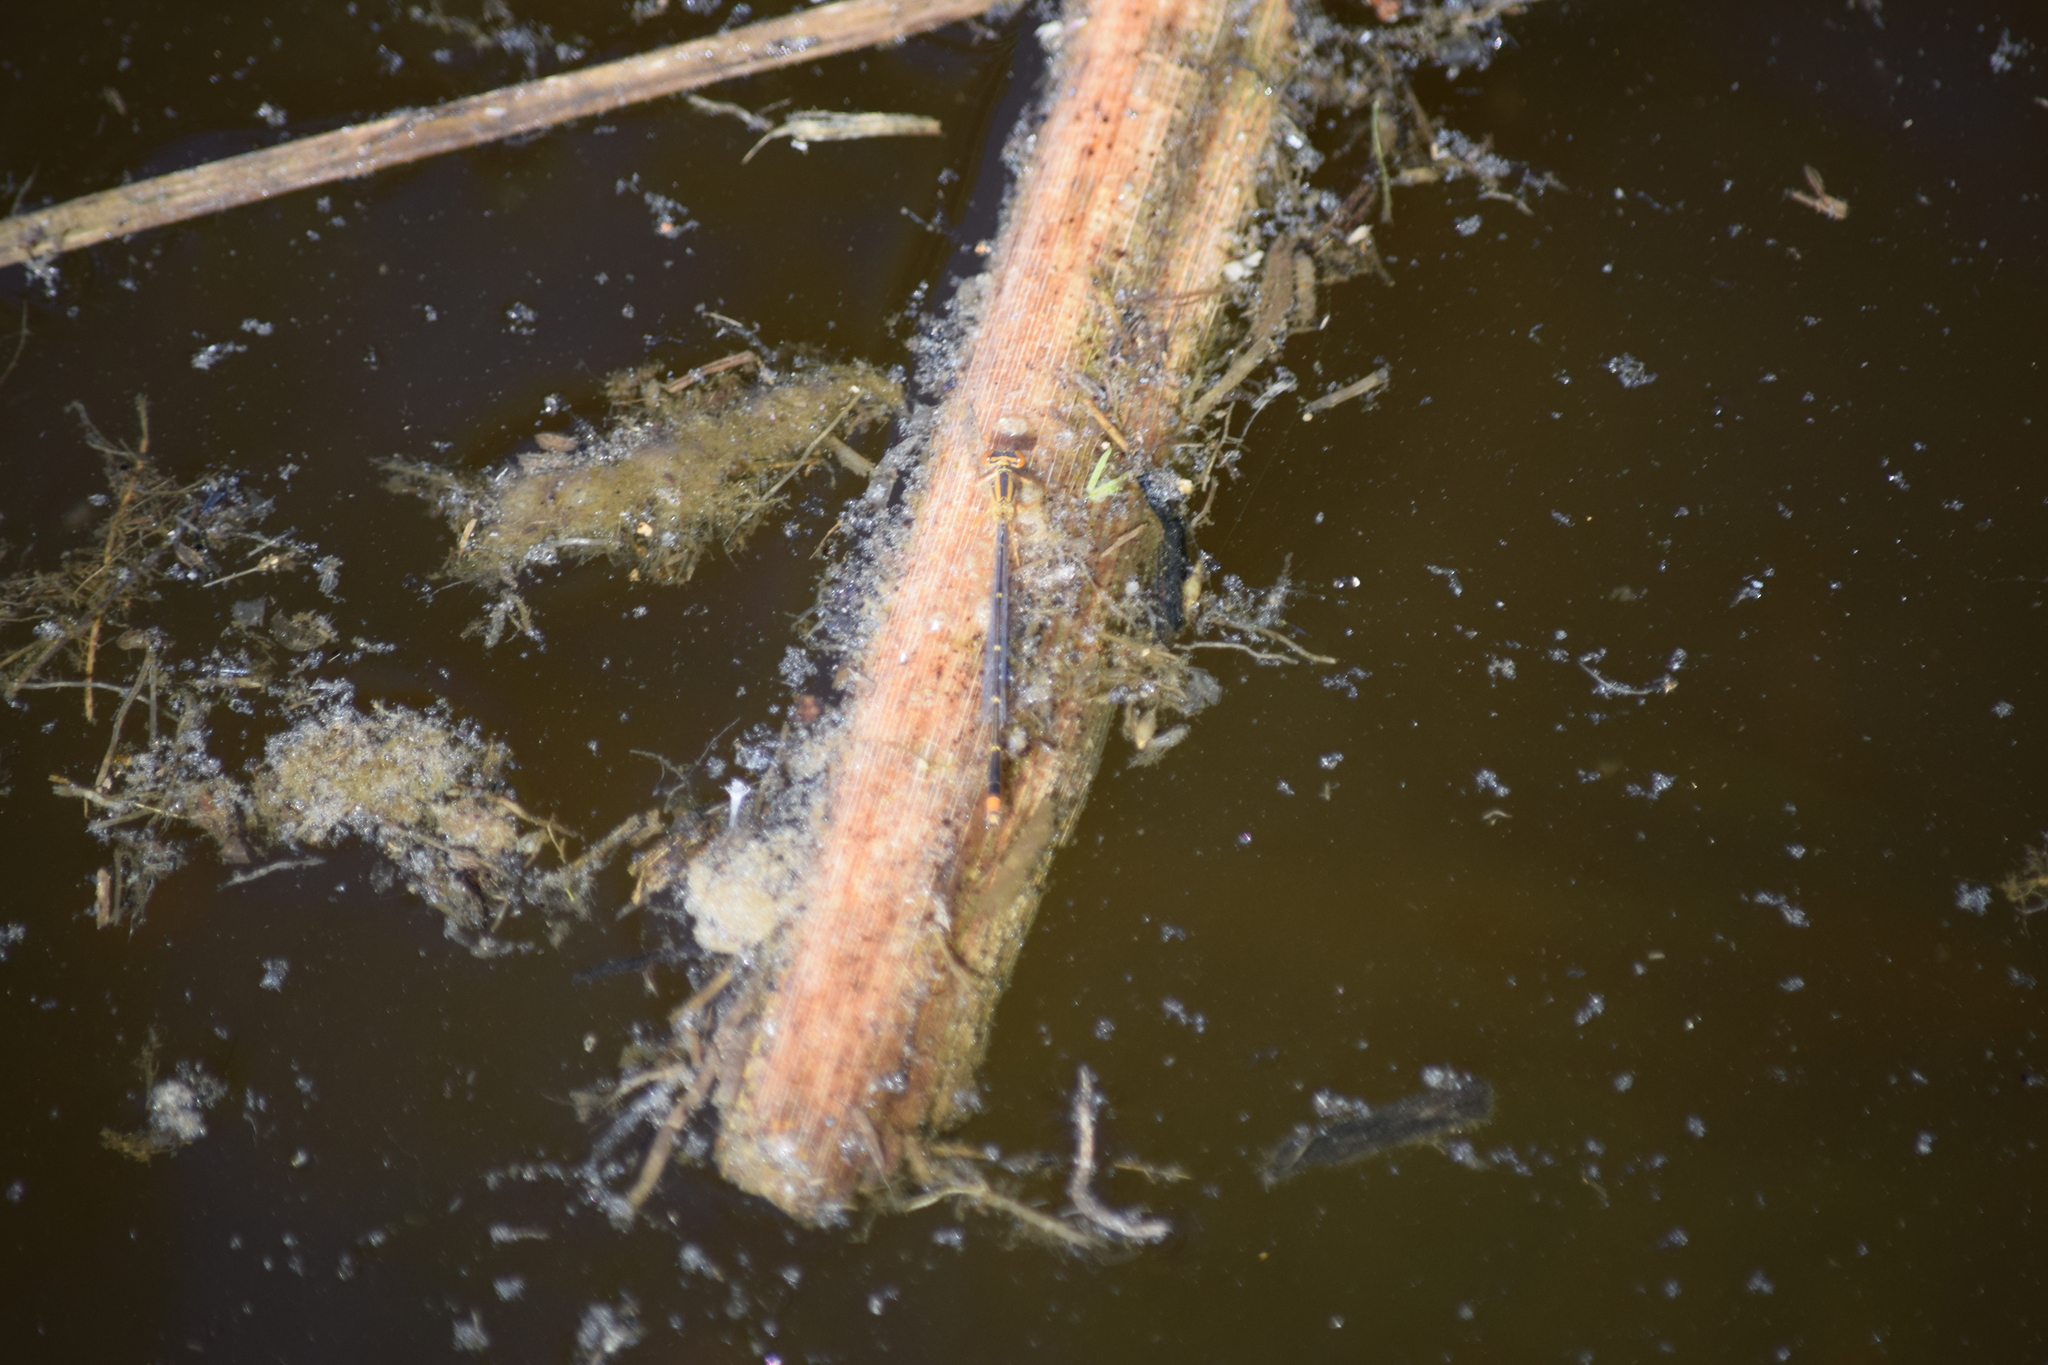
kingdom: Animalia
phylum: Arthropoda
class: Insecta
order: Odonata
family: Coenagrionidae
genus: Enallagma
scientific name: Enallagma signatum
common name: Orange bluet
